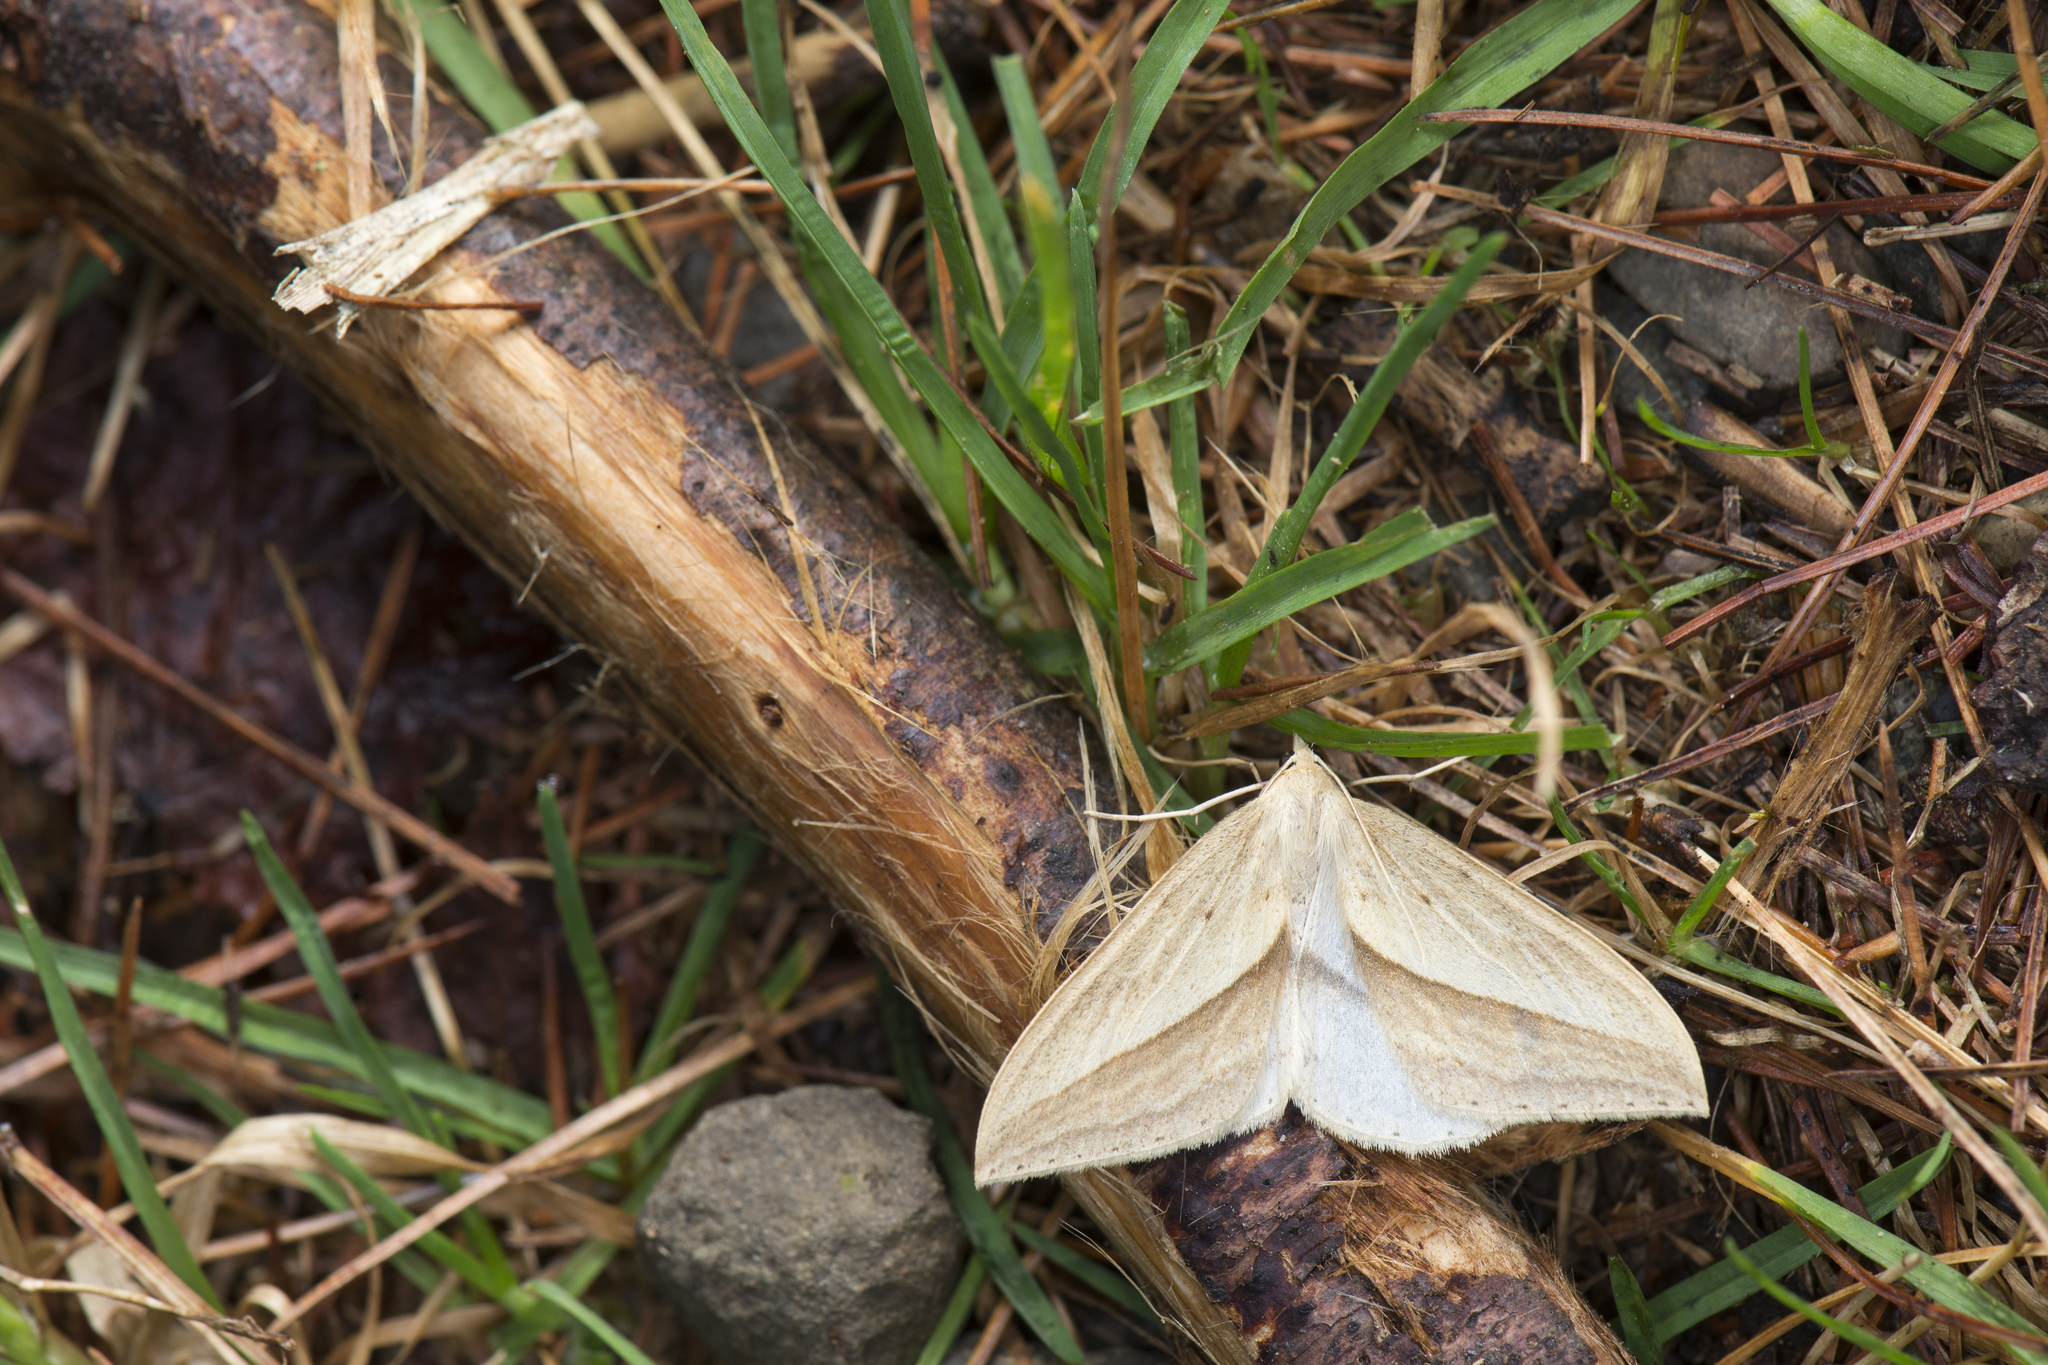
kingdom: Animalia
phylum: Arthropoda
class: Insecta
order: Lepidoptera
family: Geometridae
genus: Loxaspilates
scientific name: Loxaspilates arrizanaria
